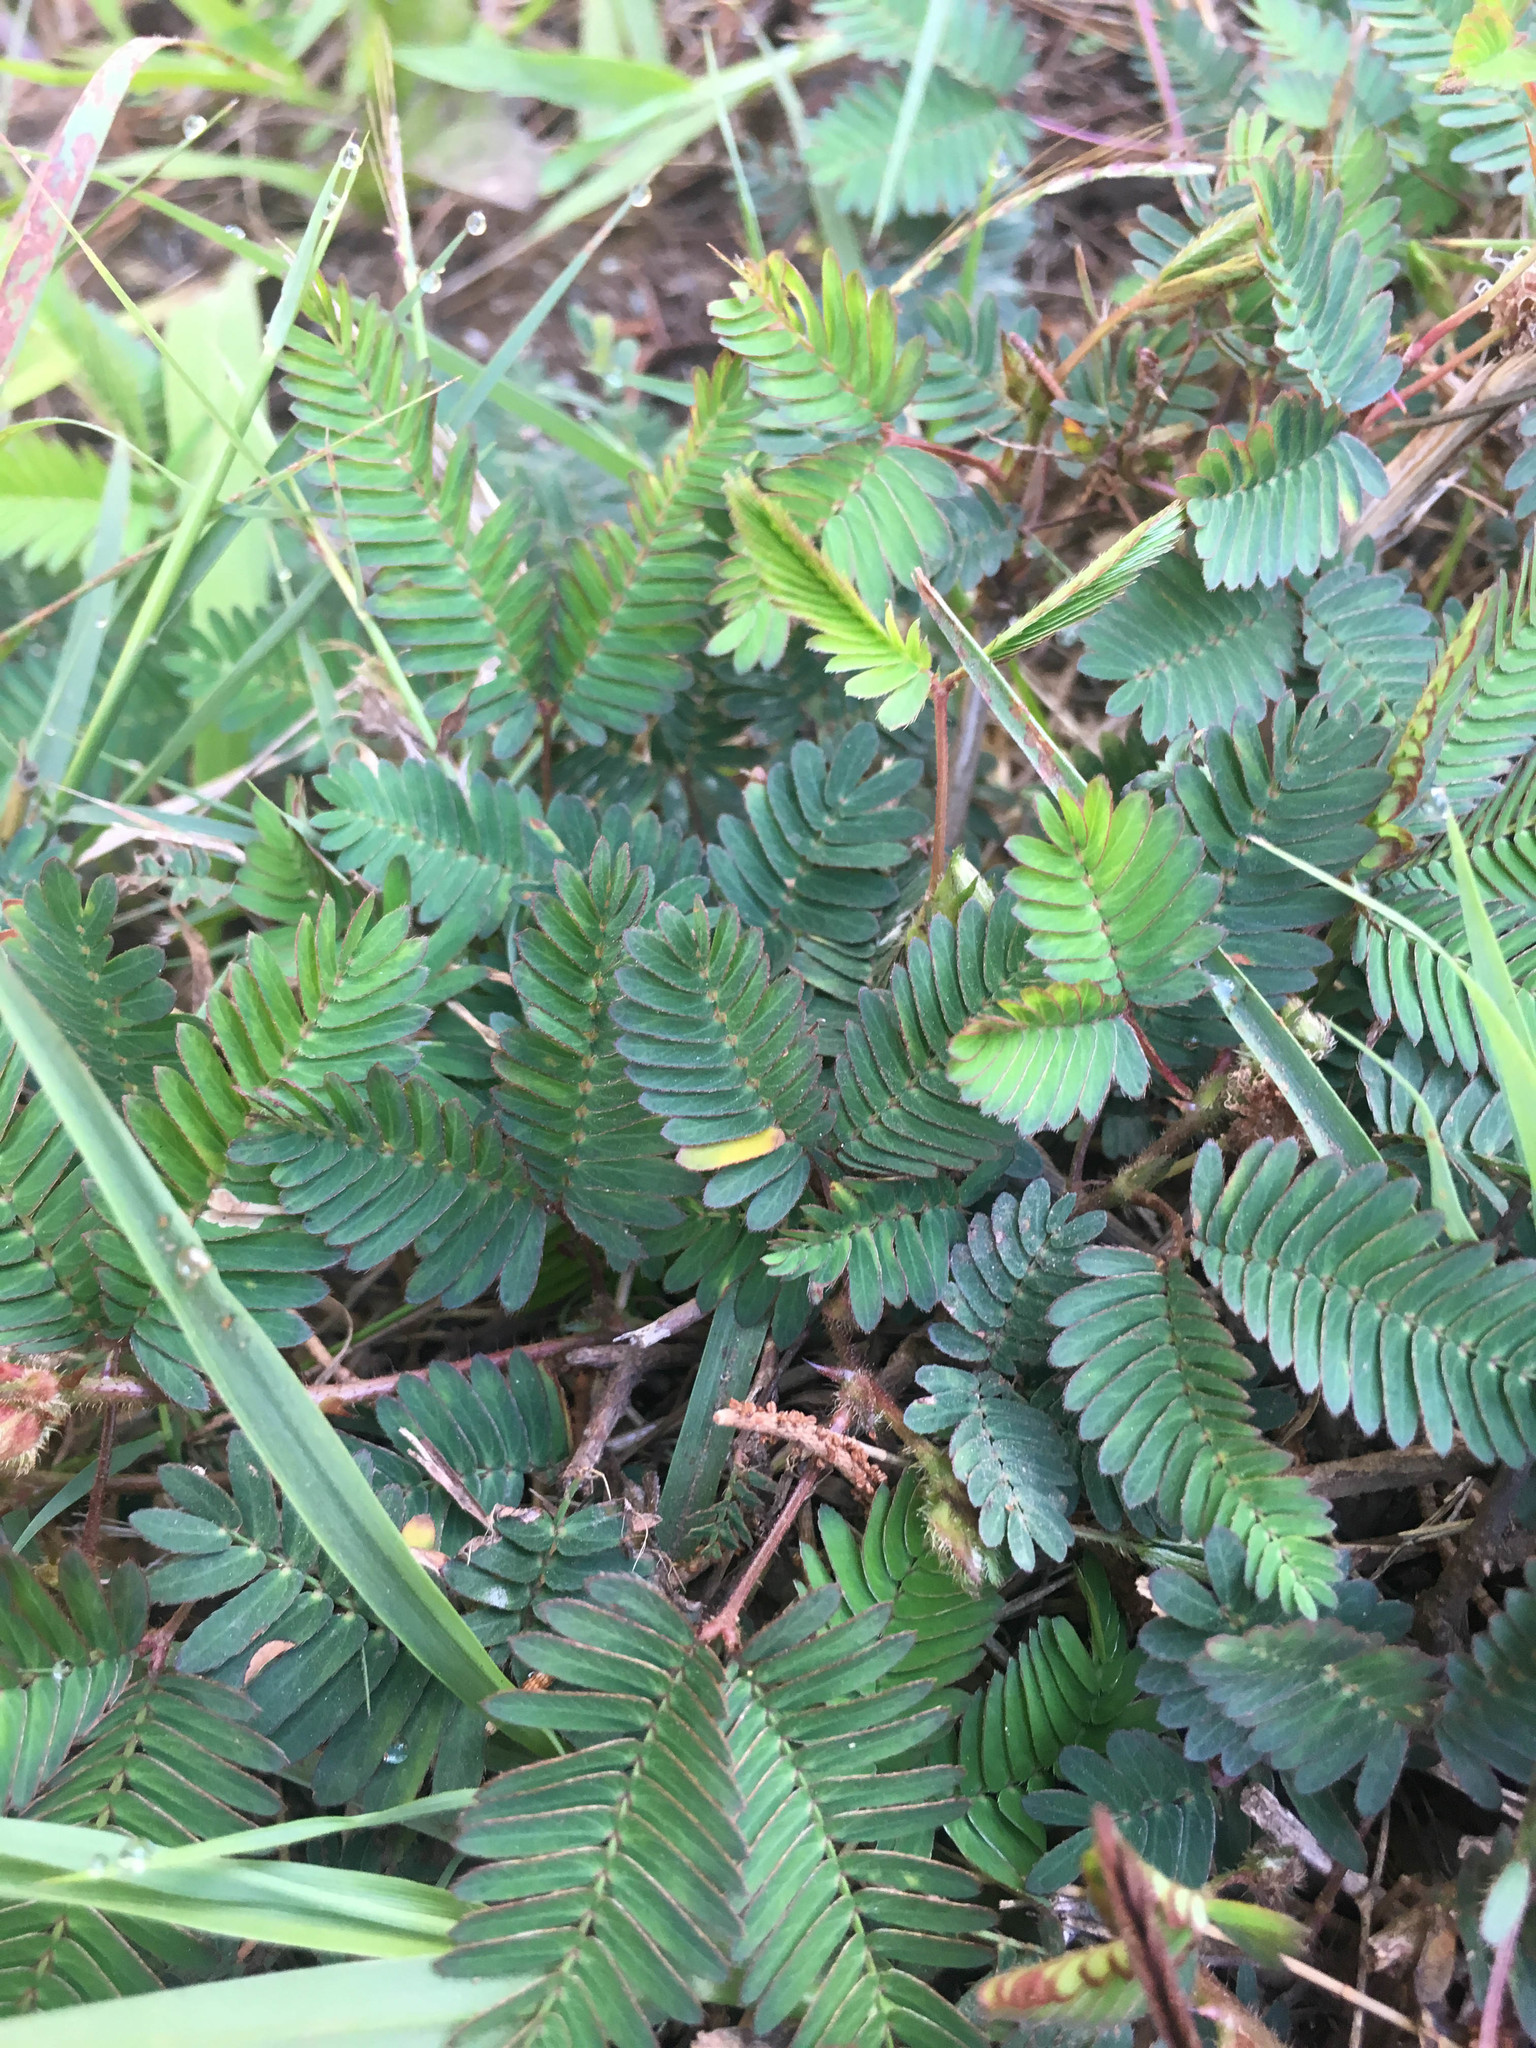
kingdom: Plantae
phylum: Tracheophyta
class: Magnoliopsida
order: Fabales
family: Fabaceae
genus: Mimosa
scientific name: Mimosa pudica
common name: Sensitive plant
